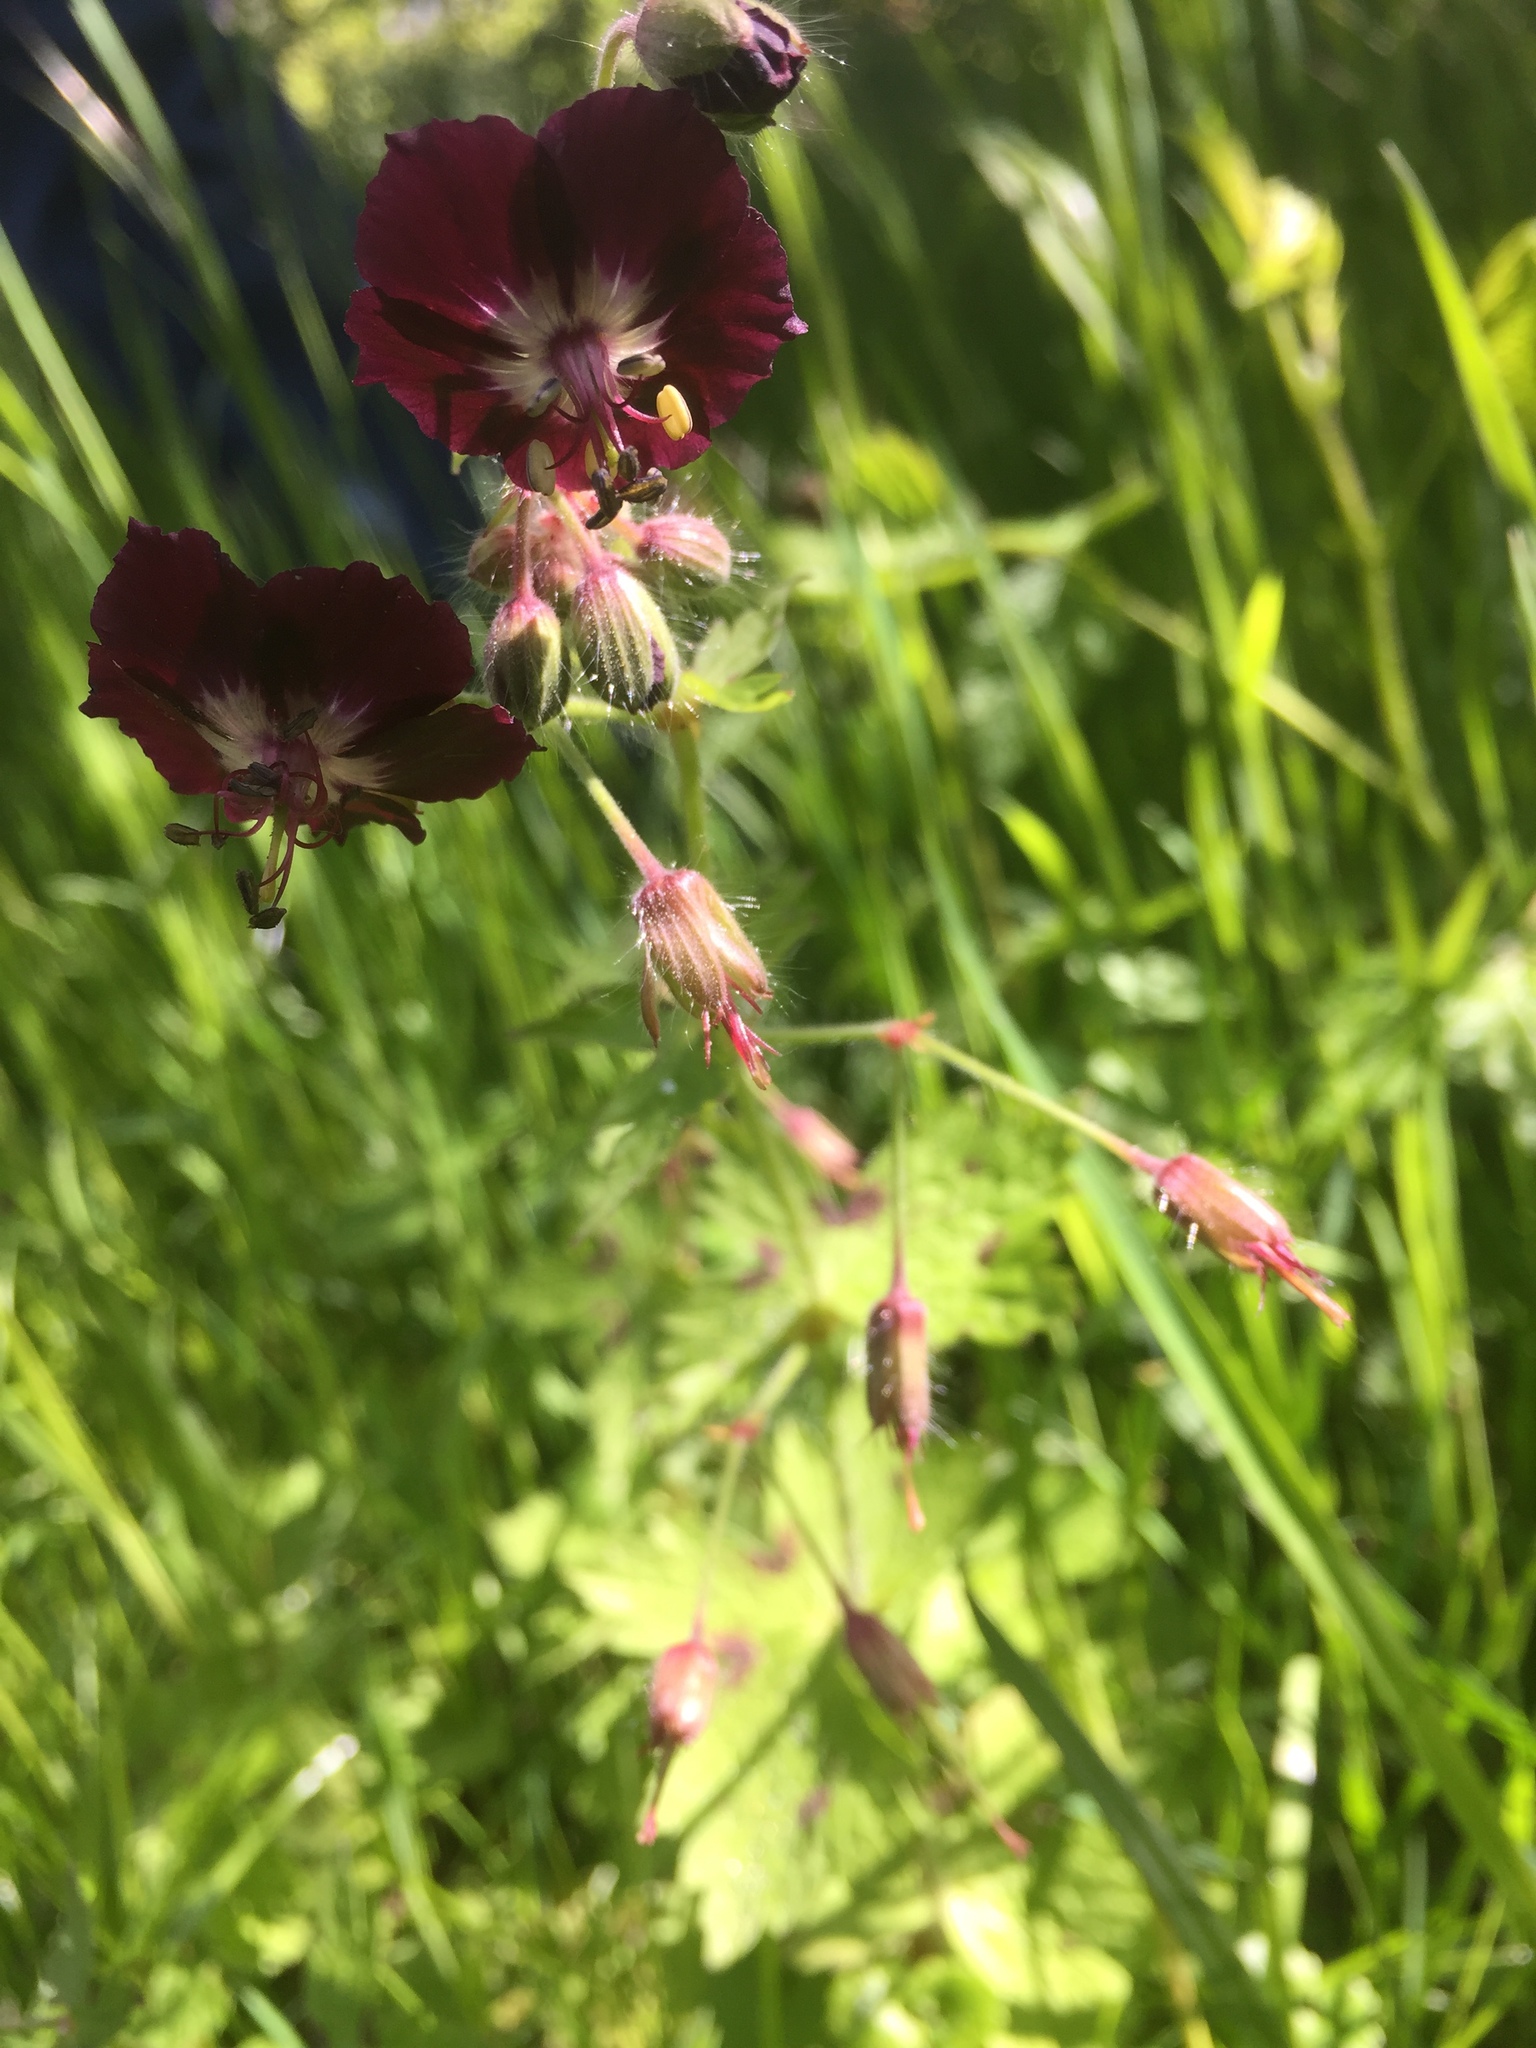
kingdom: Plantae
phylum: Tracheophyta
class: Magnoliopsida
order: Geraniales
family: Geraniaceae
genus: Geranium
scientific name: Geranium phaeum
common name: Dusky crane's-bill
